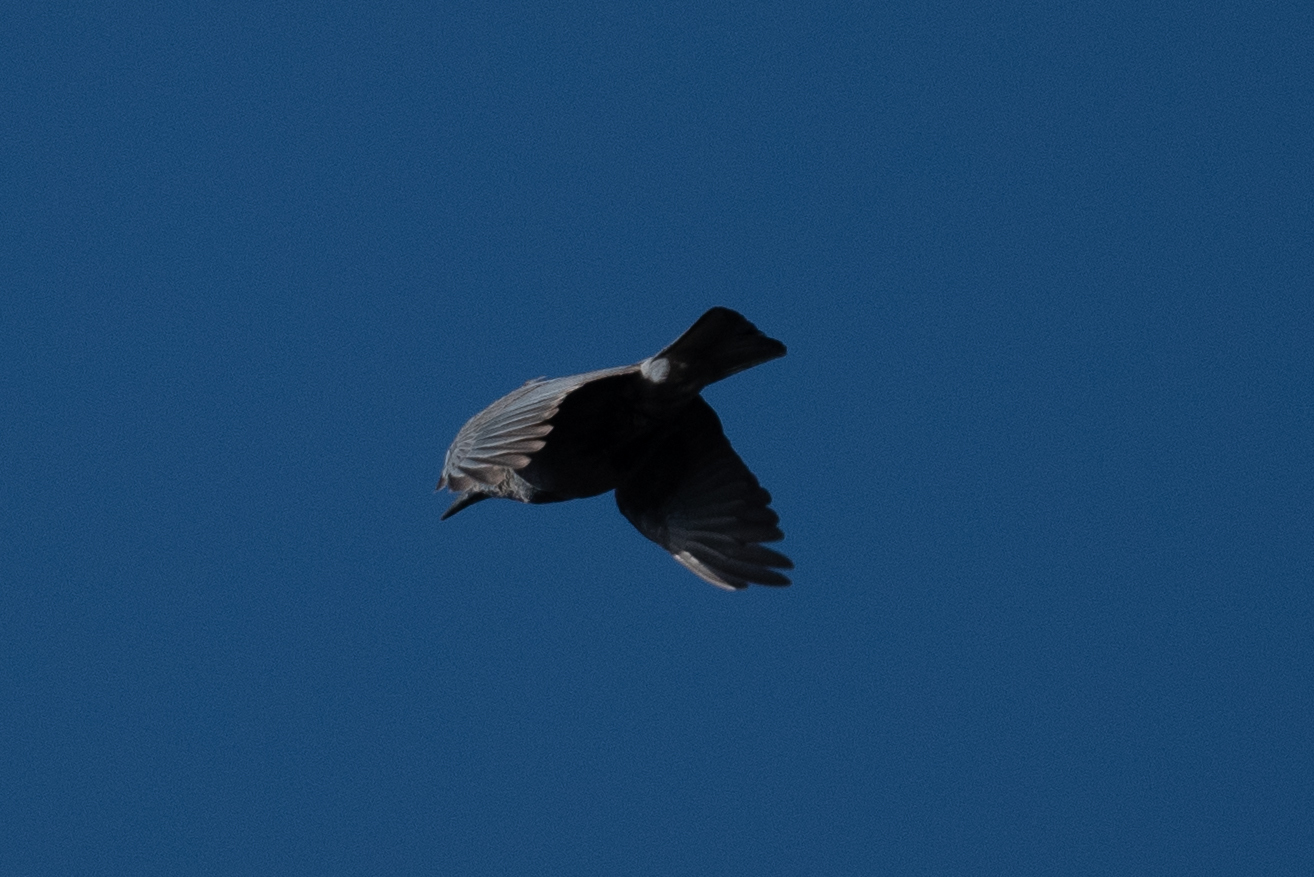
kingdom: Animalia
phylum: Chordata
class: Aves
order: Passeriformes
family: Corvidae
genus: Gymnorhinus
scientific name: Gymnorhinus cyanocephalus
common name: Pinyon jay
